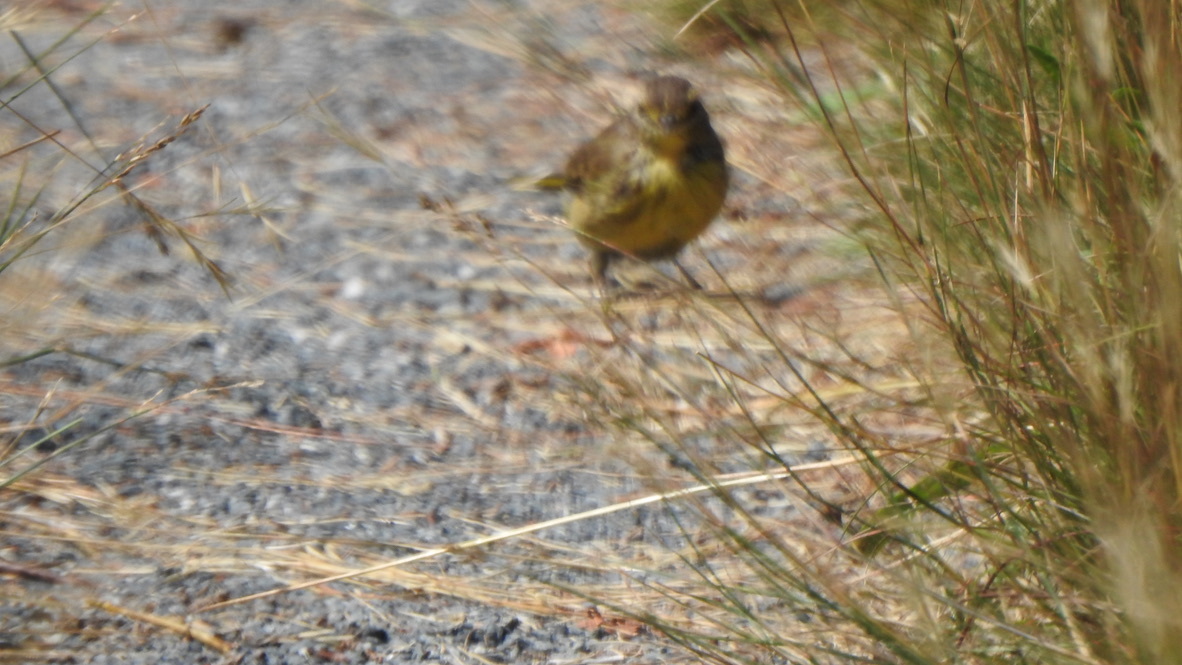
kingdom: Animalia
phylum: Chordata
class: Aves
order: Passeriformes
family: Parulidae
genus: Setophaga
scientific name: Setophaga palmarum
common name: Palm warbler
